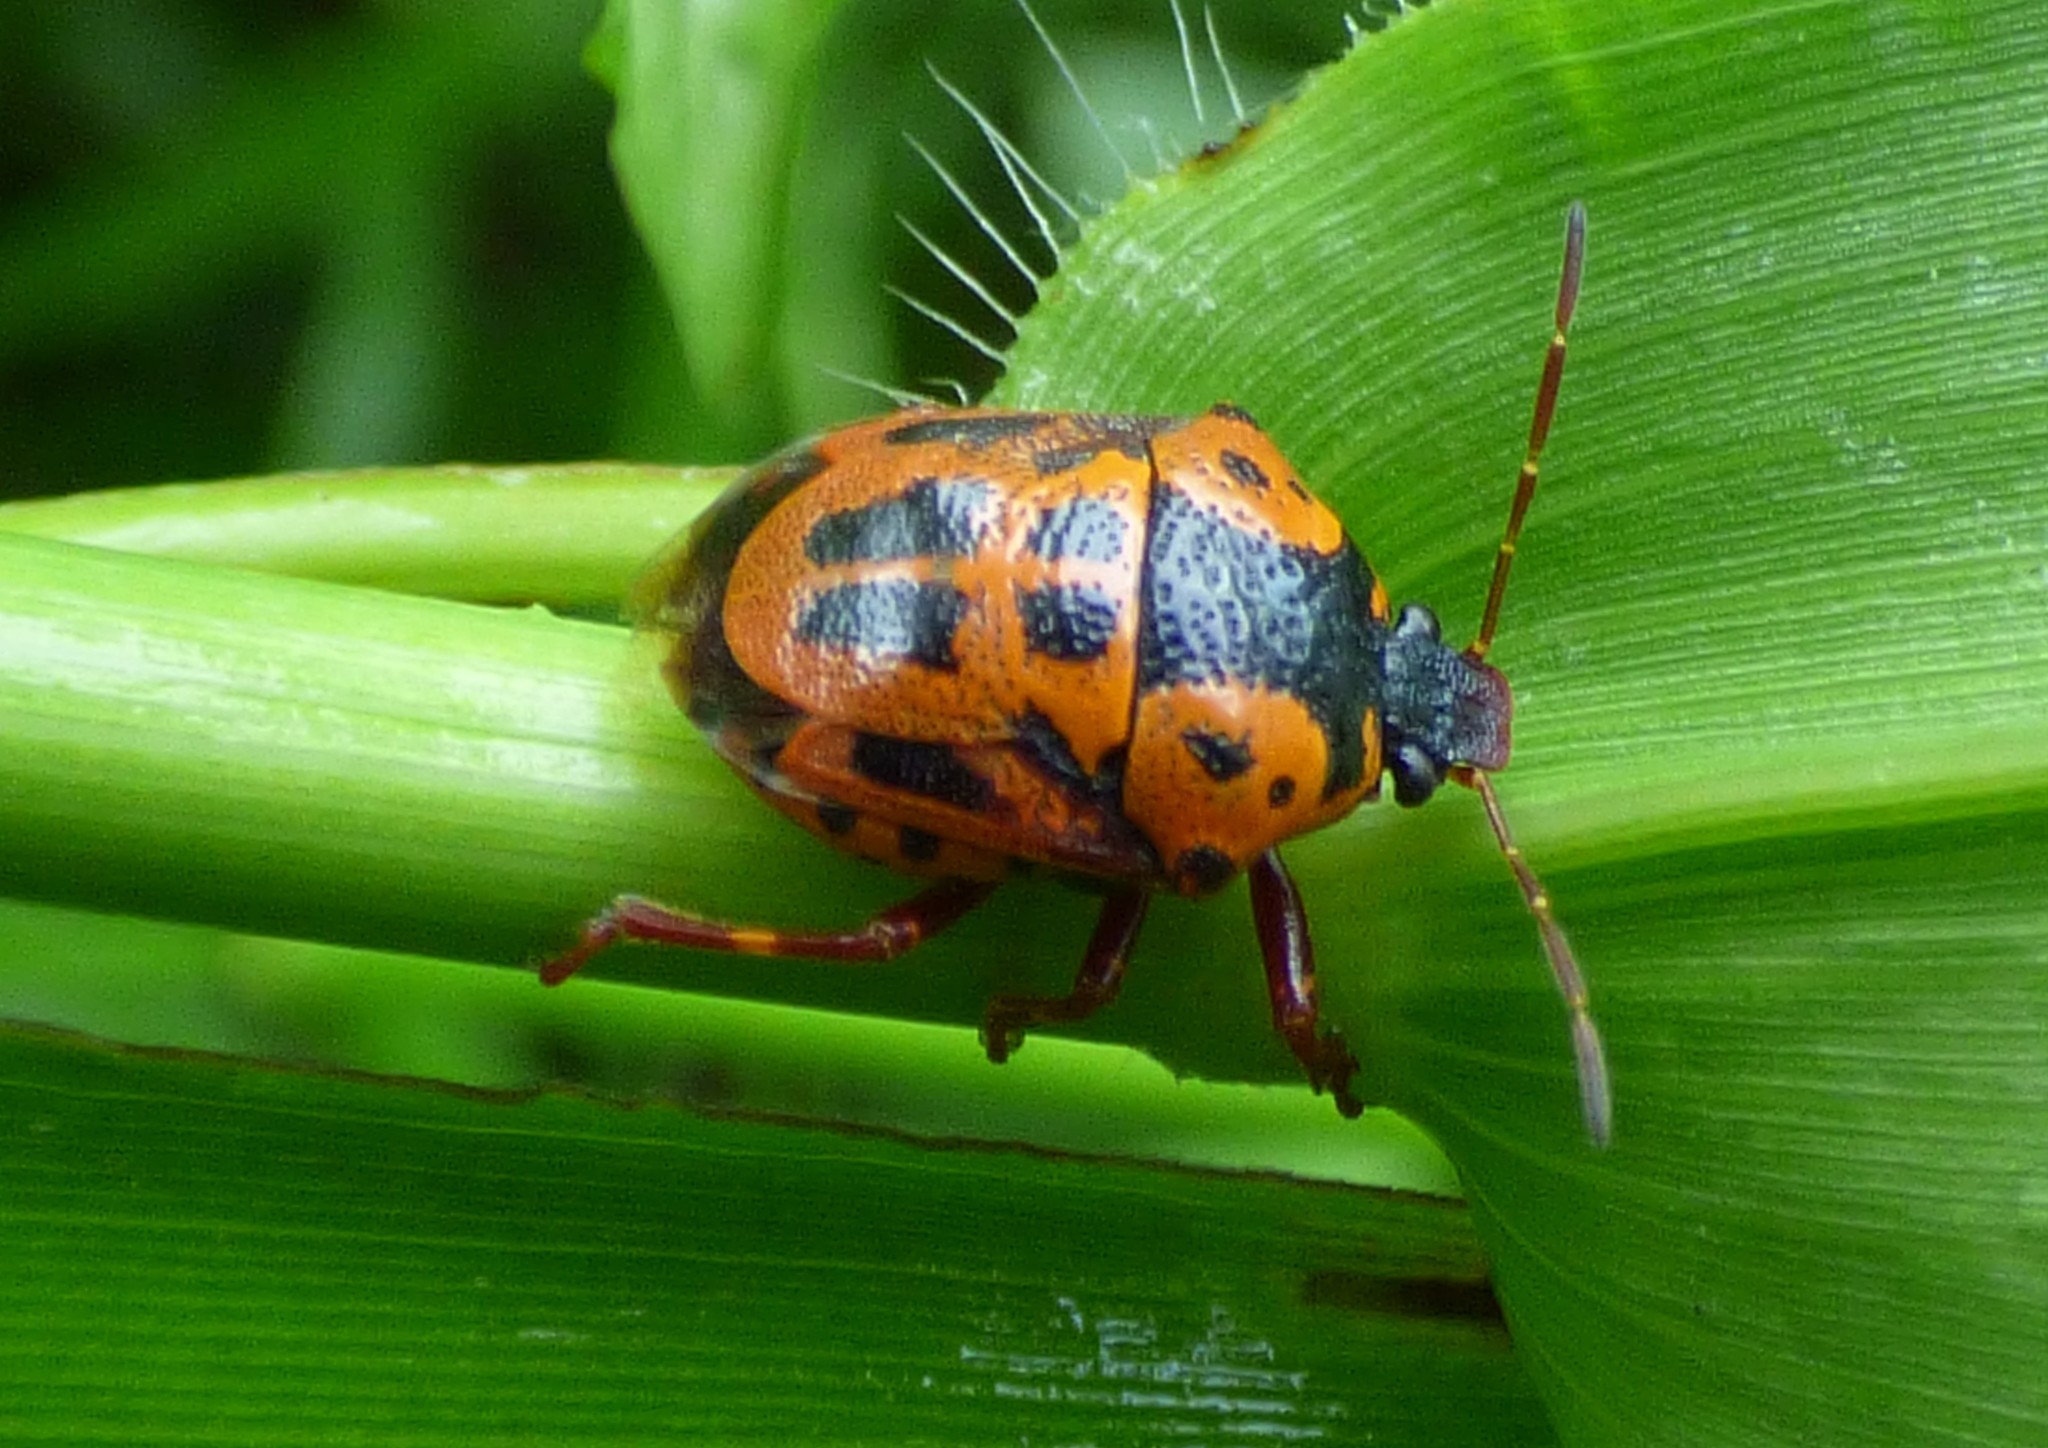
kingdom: Animalia
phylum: Arthropoda
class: Insecta
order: Hemiptera
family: Pentatomidae
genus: Stiretrus
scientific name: Stiretrus anchorago
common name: Anchor stink bug
